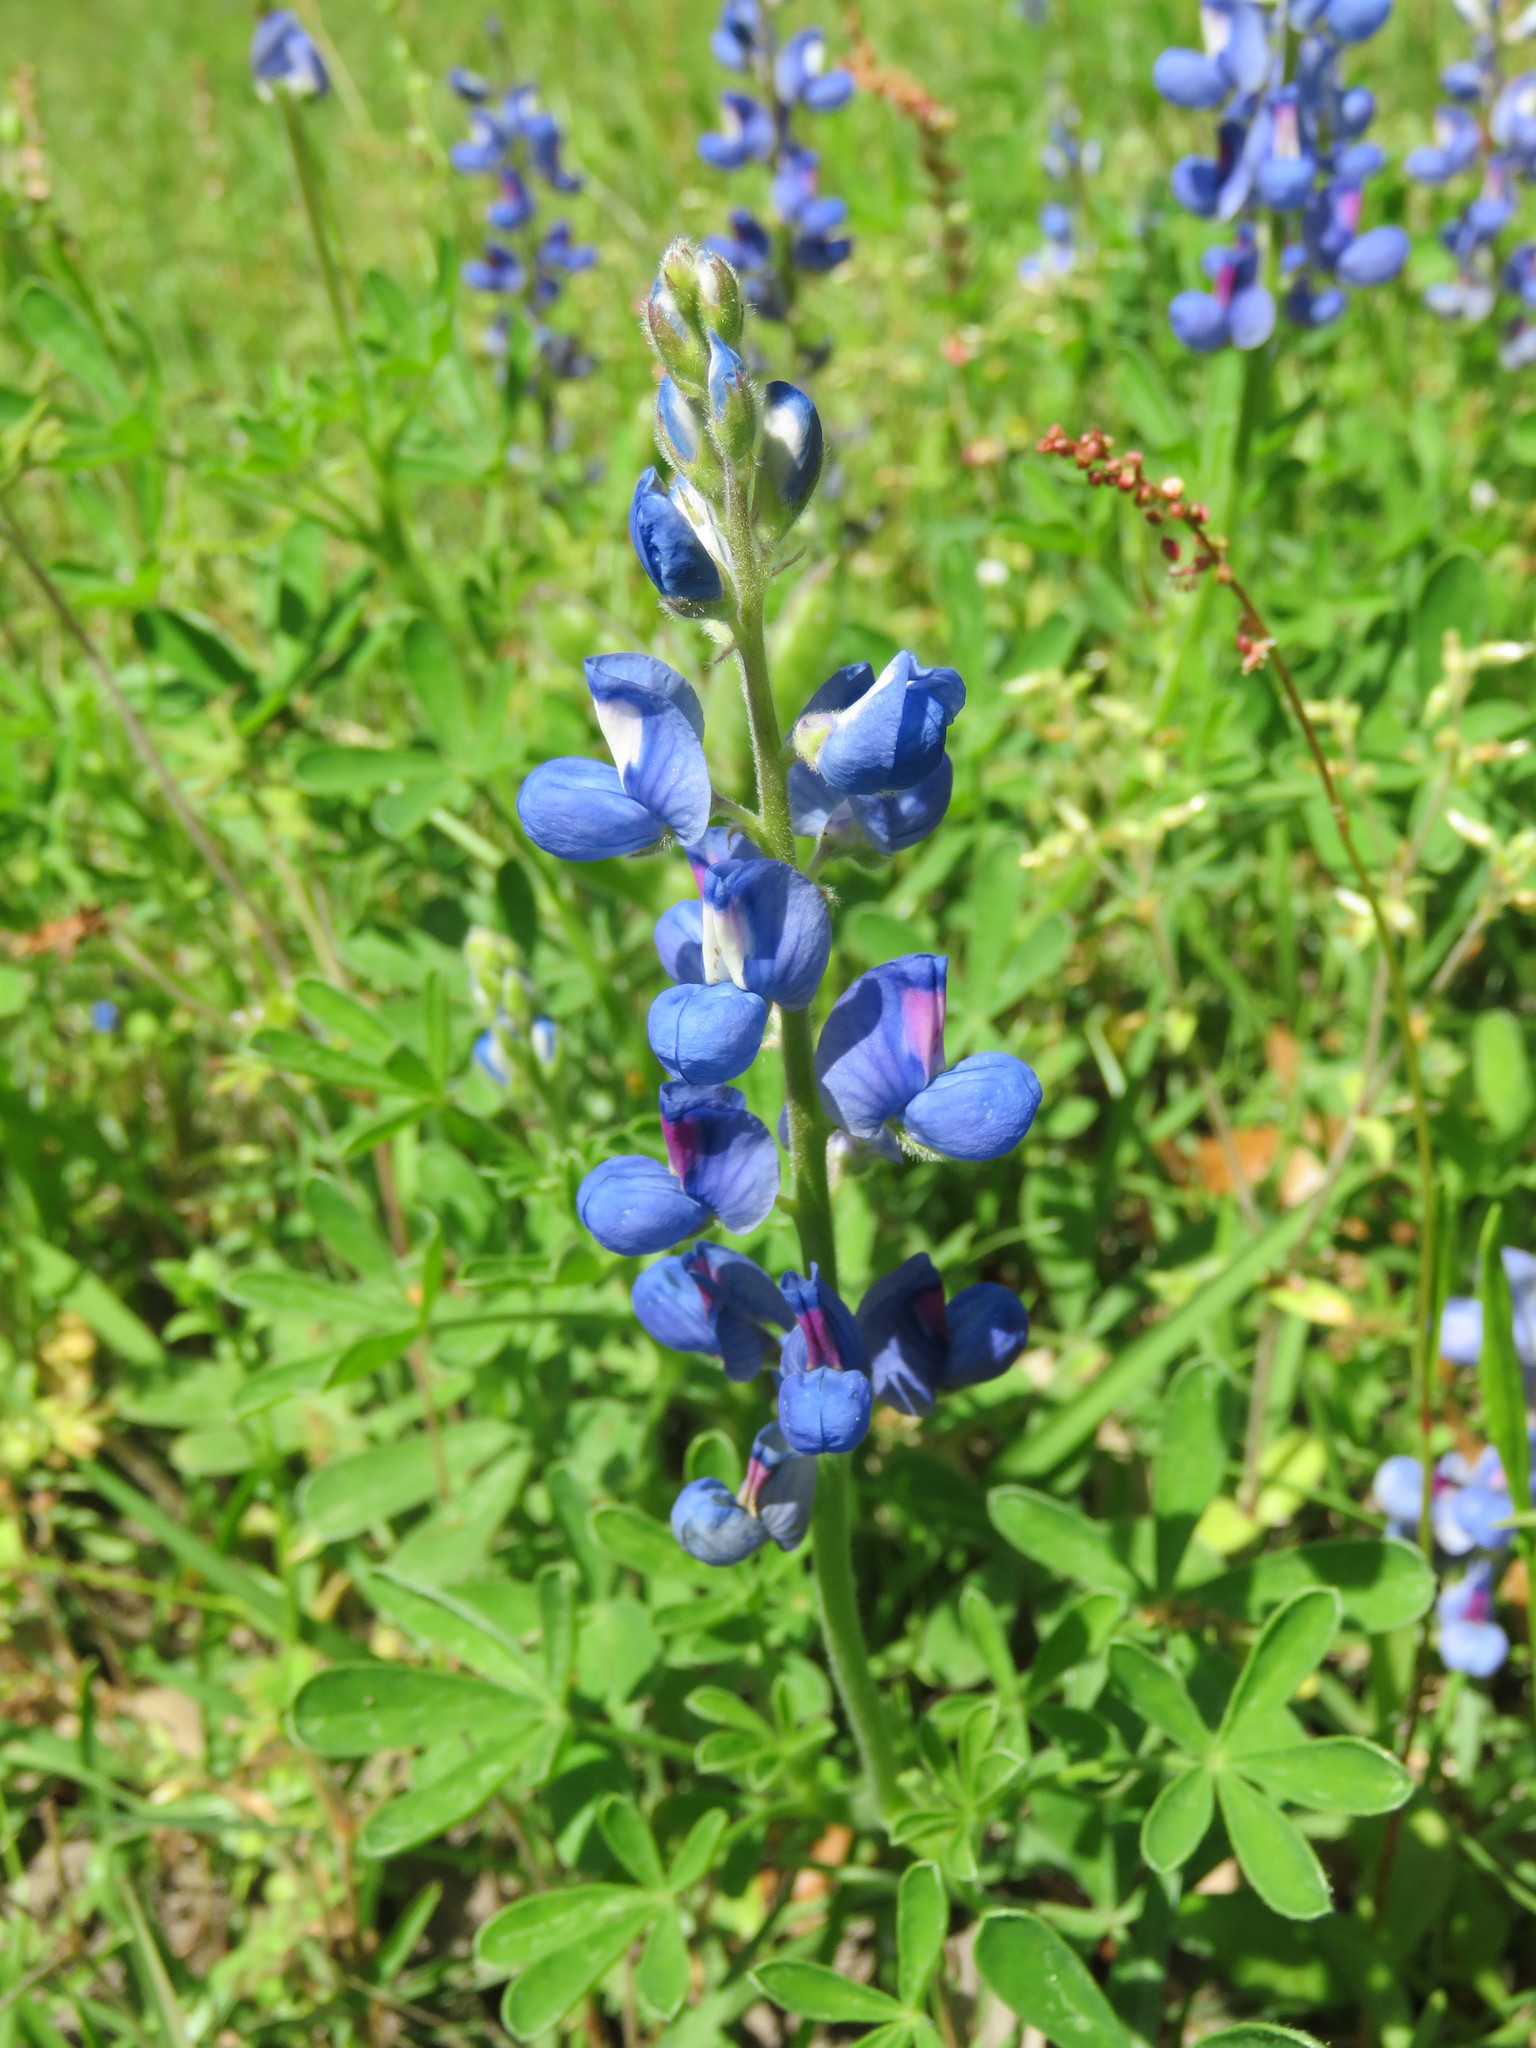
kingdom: Plantae
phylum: Tracheophyta
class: Magnoliopsida
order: Fabales
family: Fabaceae
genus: Lupinus
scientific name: Lupinus subcarnosus
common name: Texas bluebonnet
